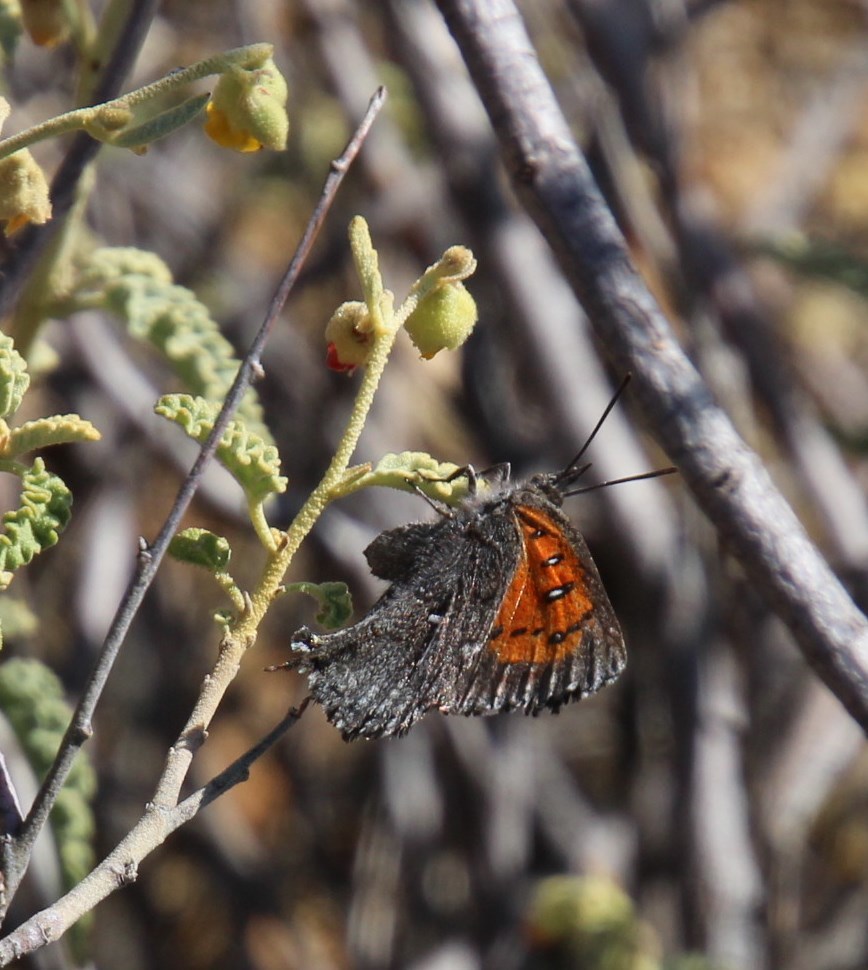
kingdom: Animalia
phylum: Arthropoda
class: Insecta
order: Lepidoptera
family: Lycaenidae
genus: Phasis
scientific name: Phasis clavum
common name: Namaqua arrowhead
